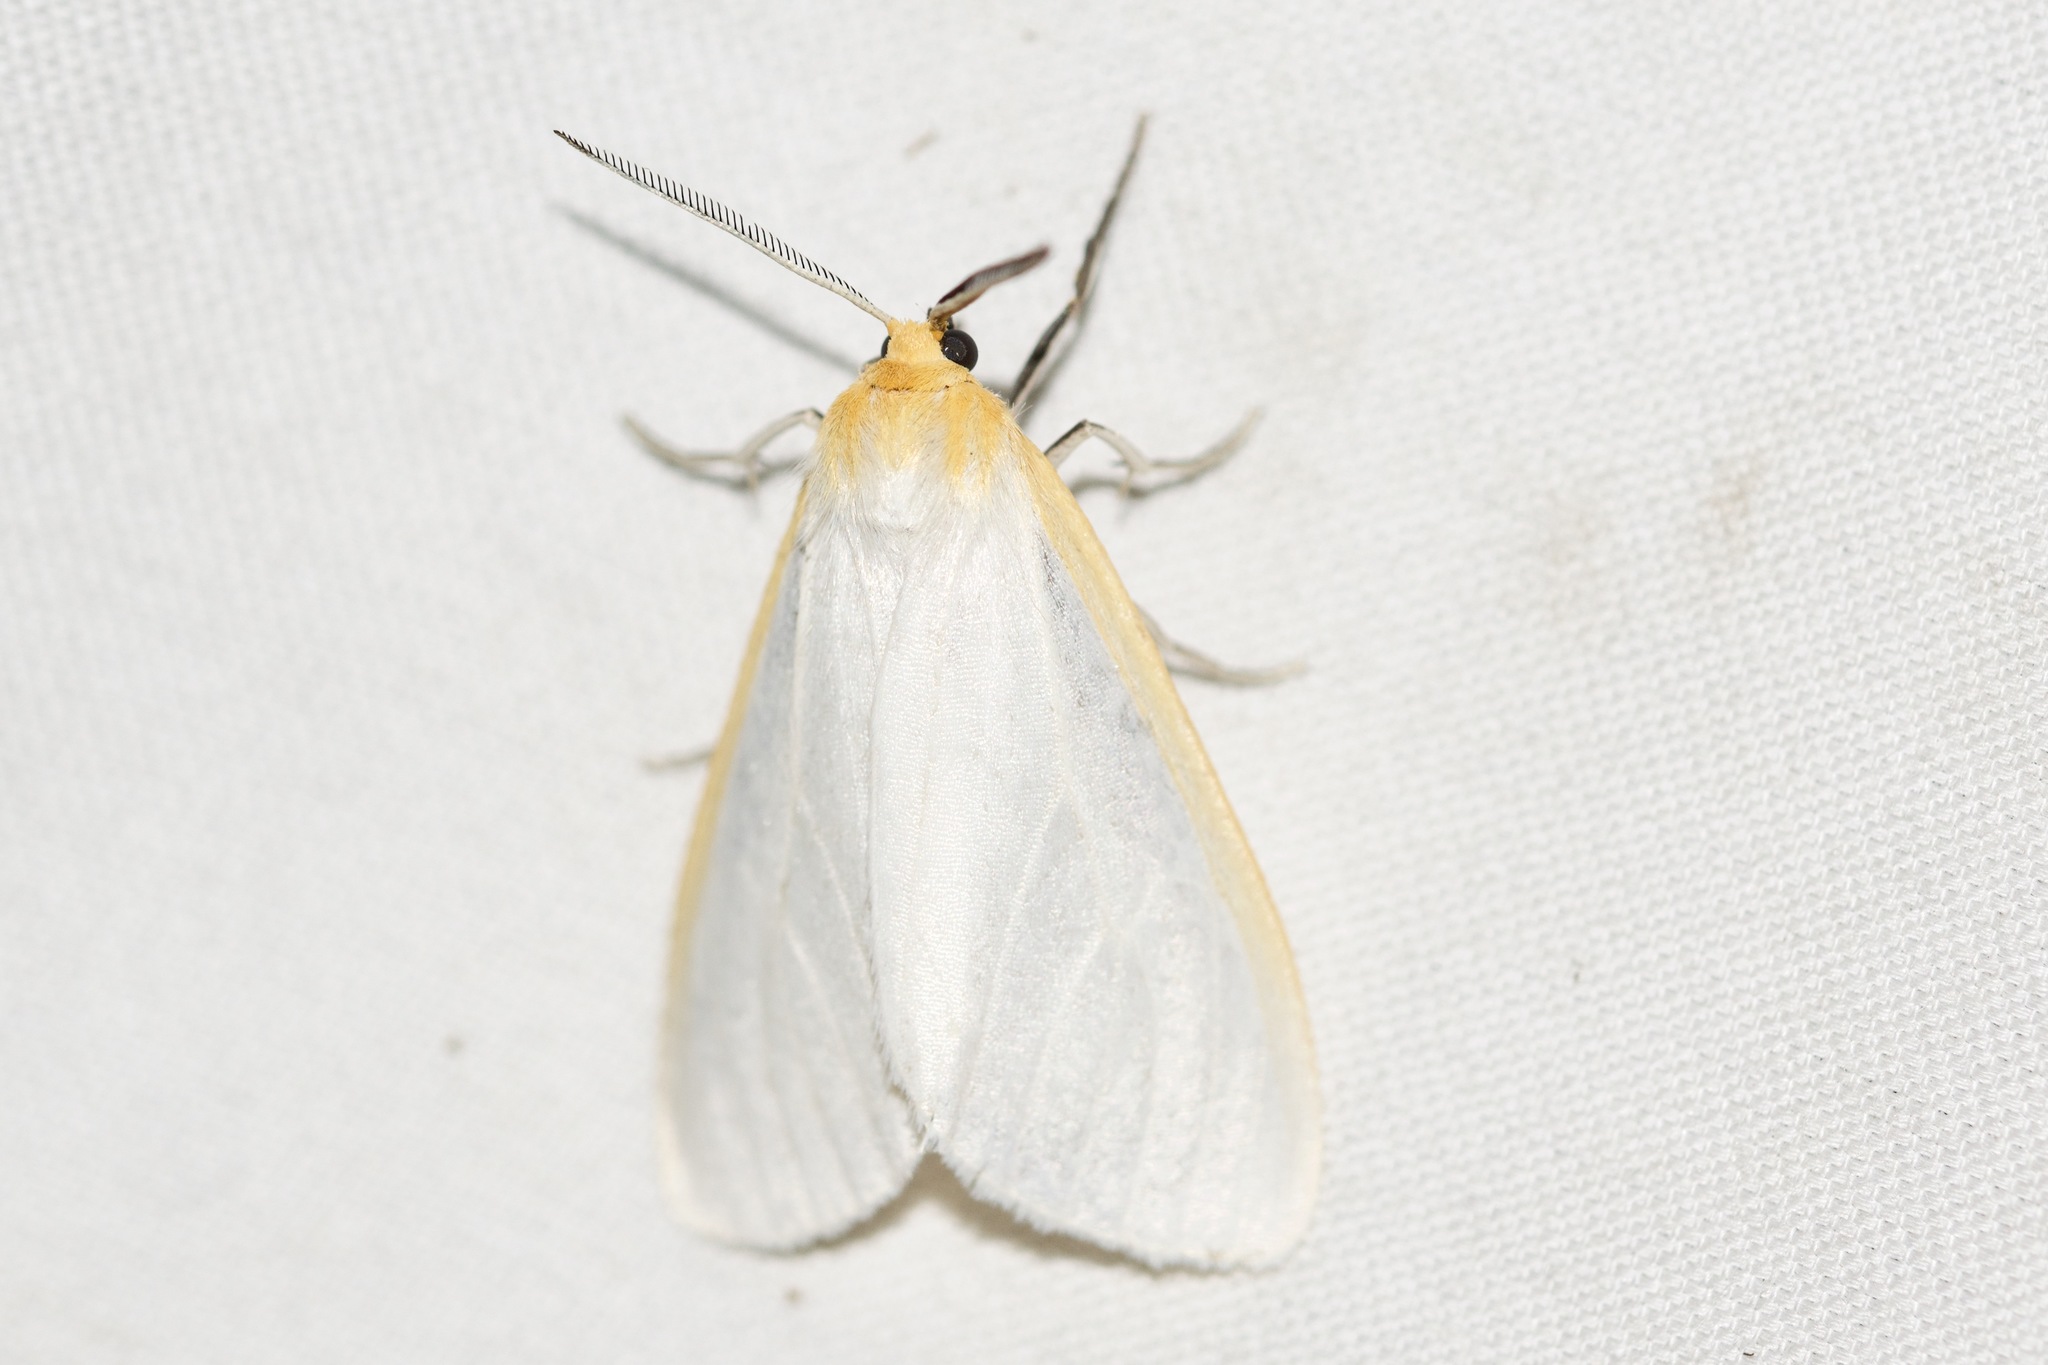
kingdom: Animalia
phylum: Arthropoda
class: Insecta
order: Lepidoptera
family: Erebidae
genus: Cycnia
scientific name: Cycnia tenera
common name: Delicate cycnia moth
